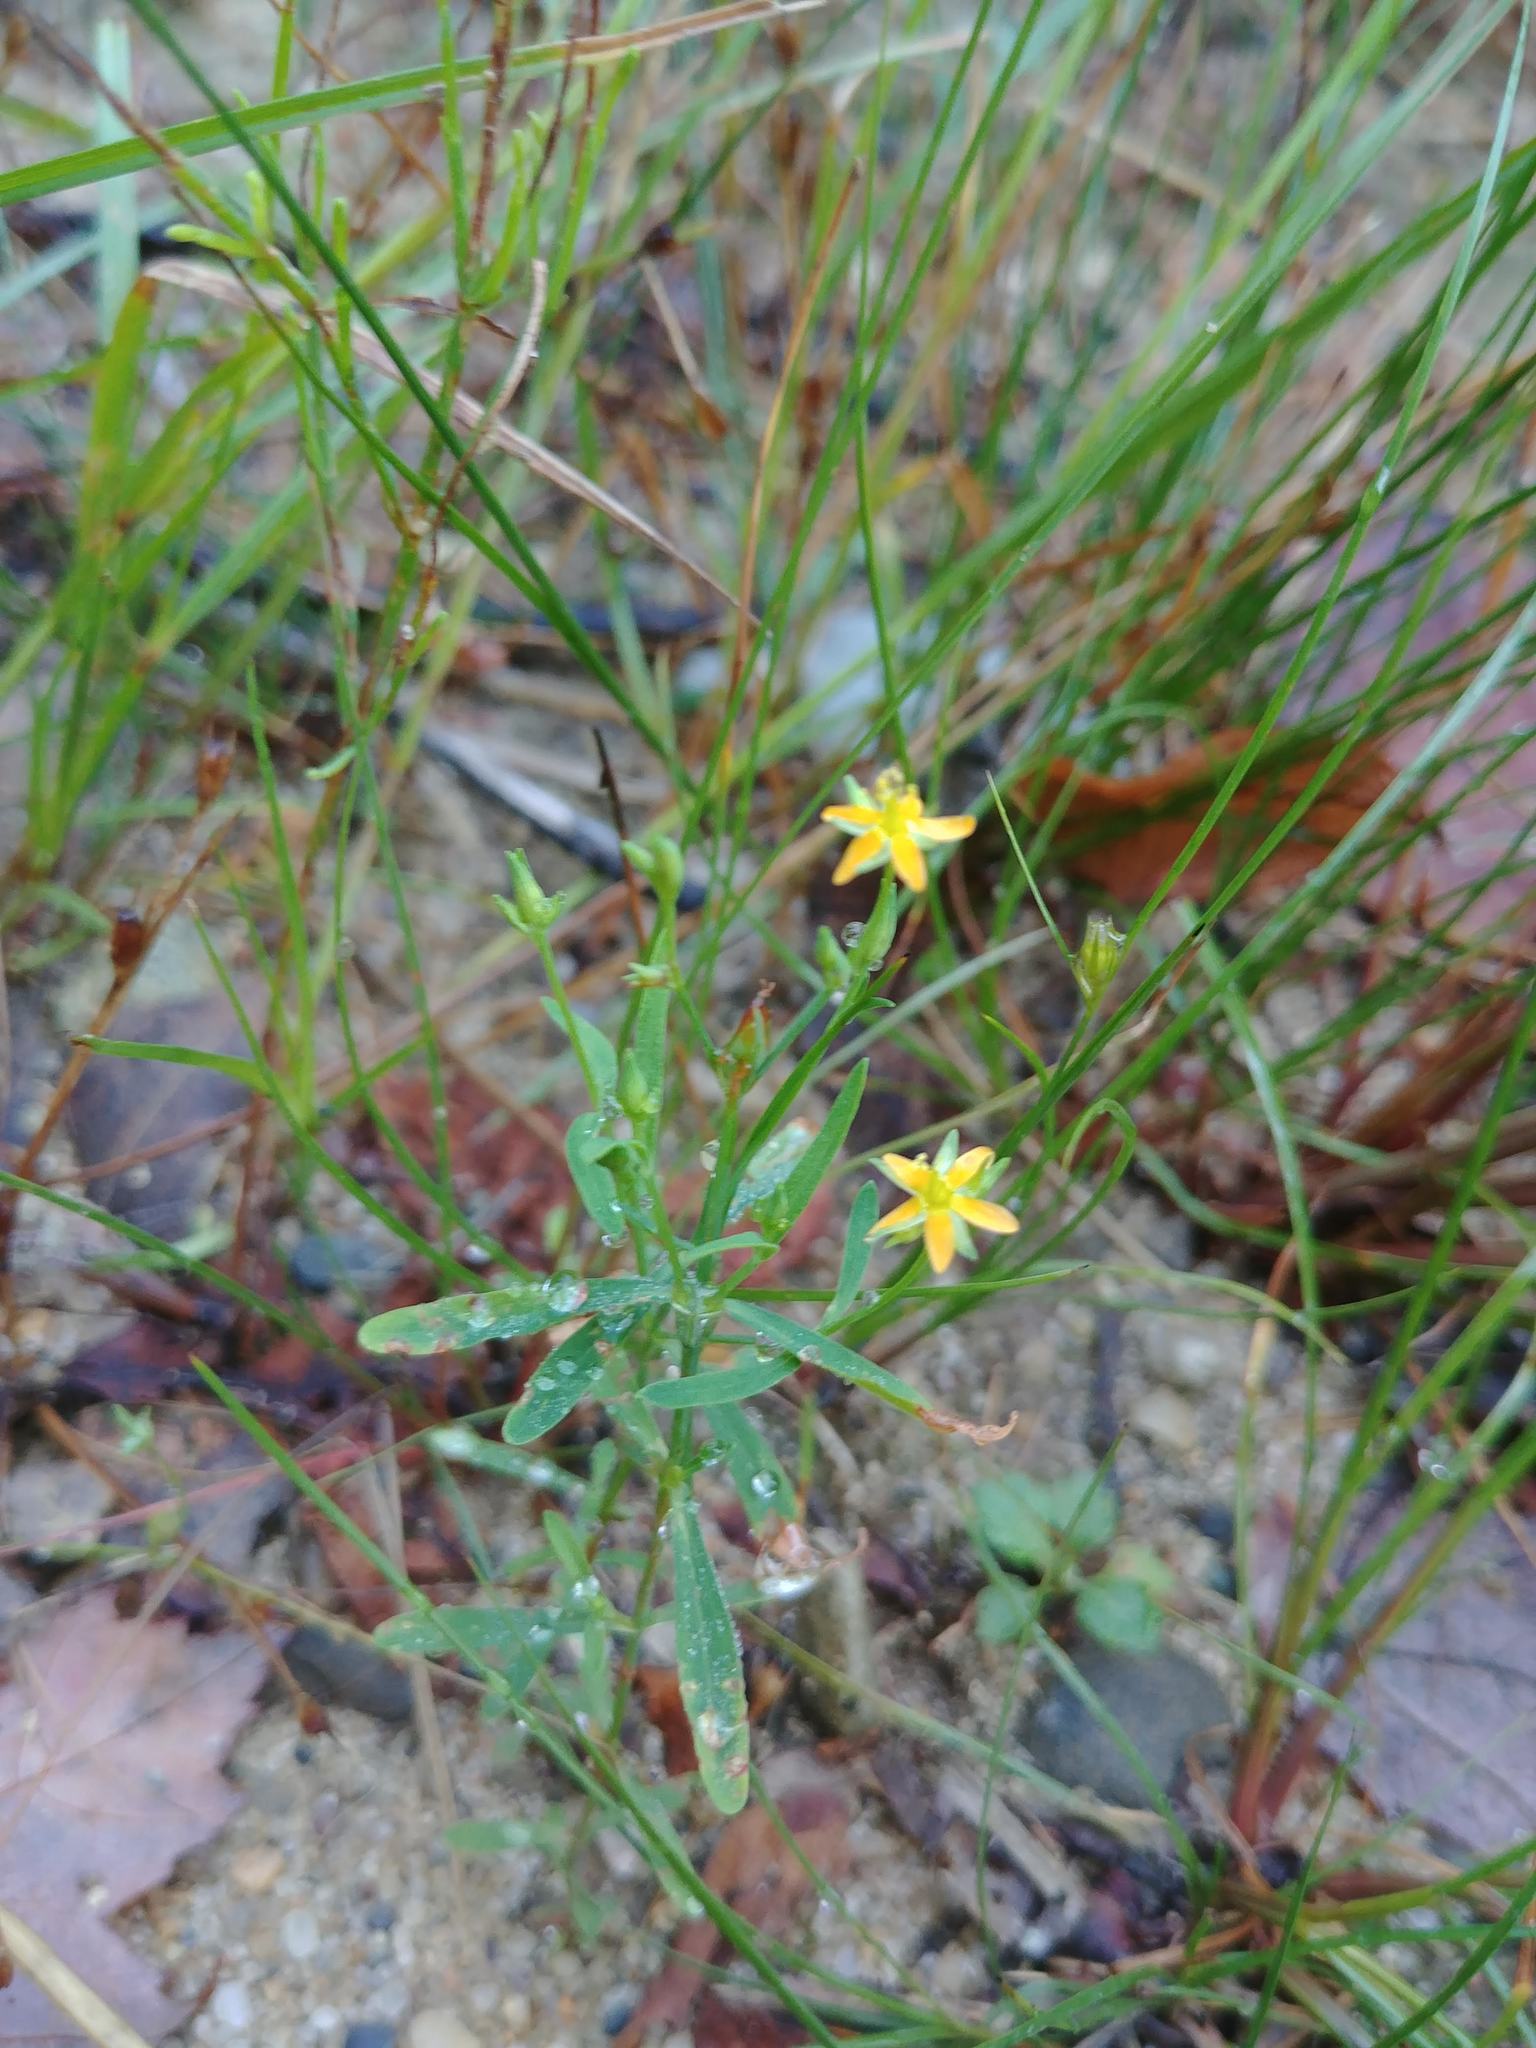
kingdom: Plantae
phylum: Tracheophyta
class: Magnoliopsida
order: Malpighiales
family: Hypericaceae
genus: Hypericum
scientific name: Hypericum canadense
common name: Irish st. john's-wort
